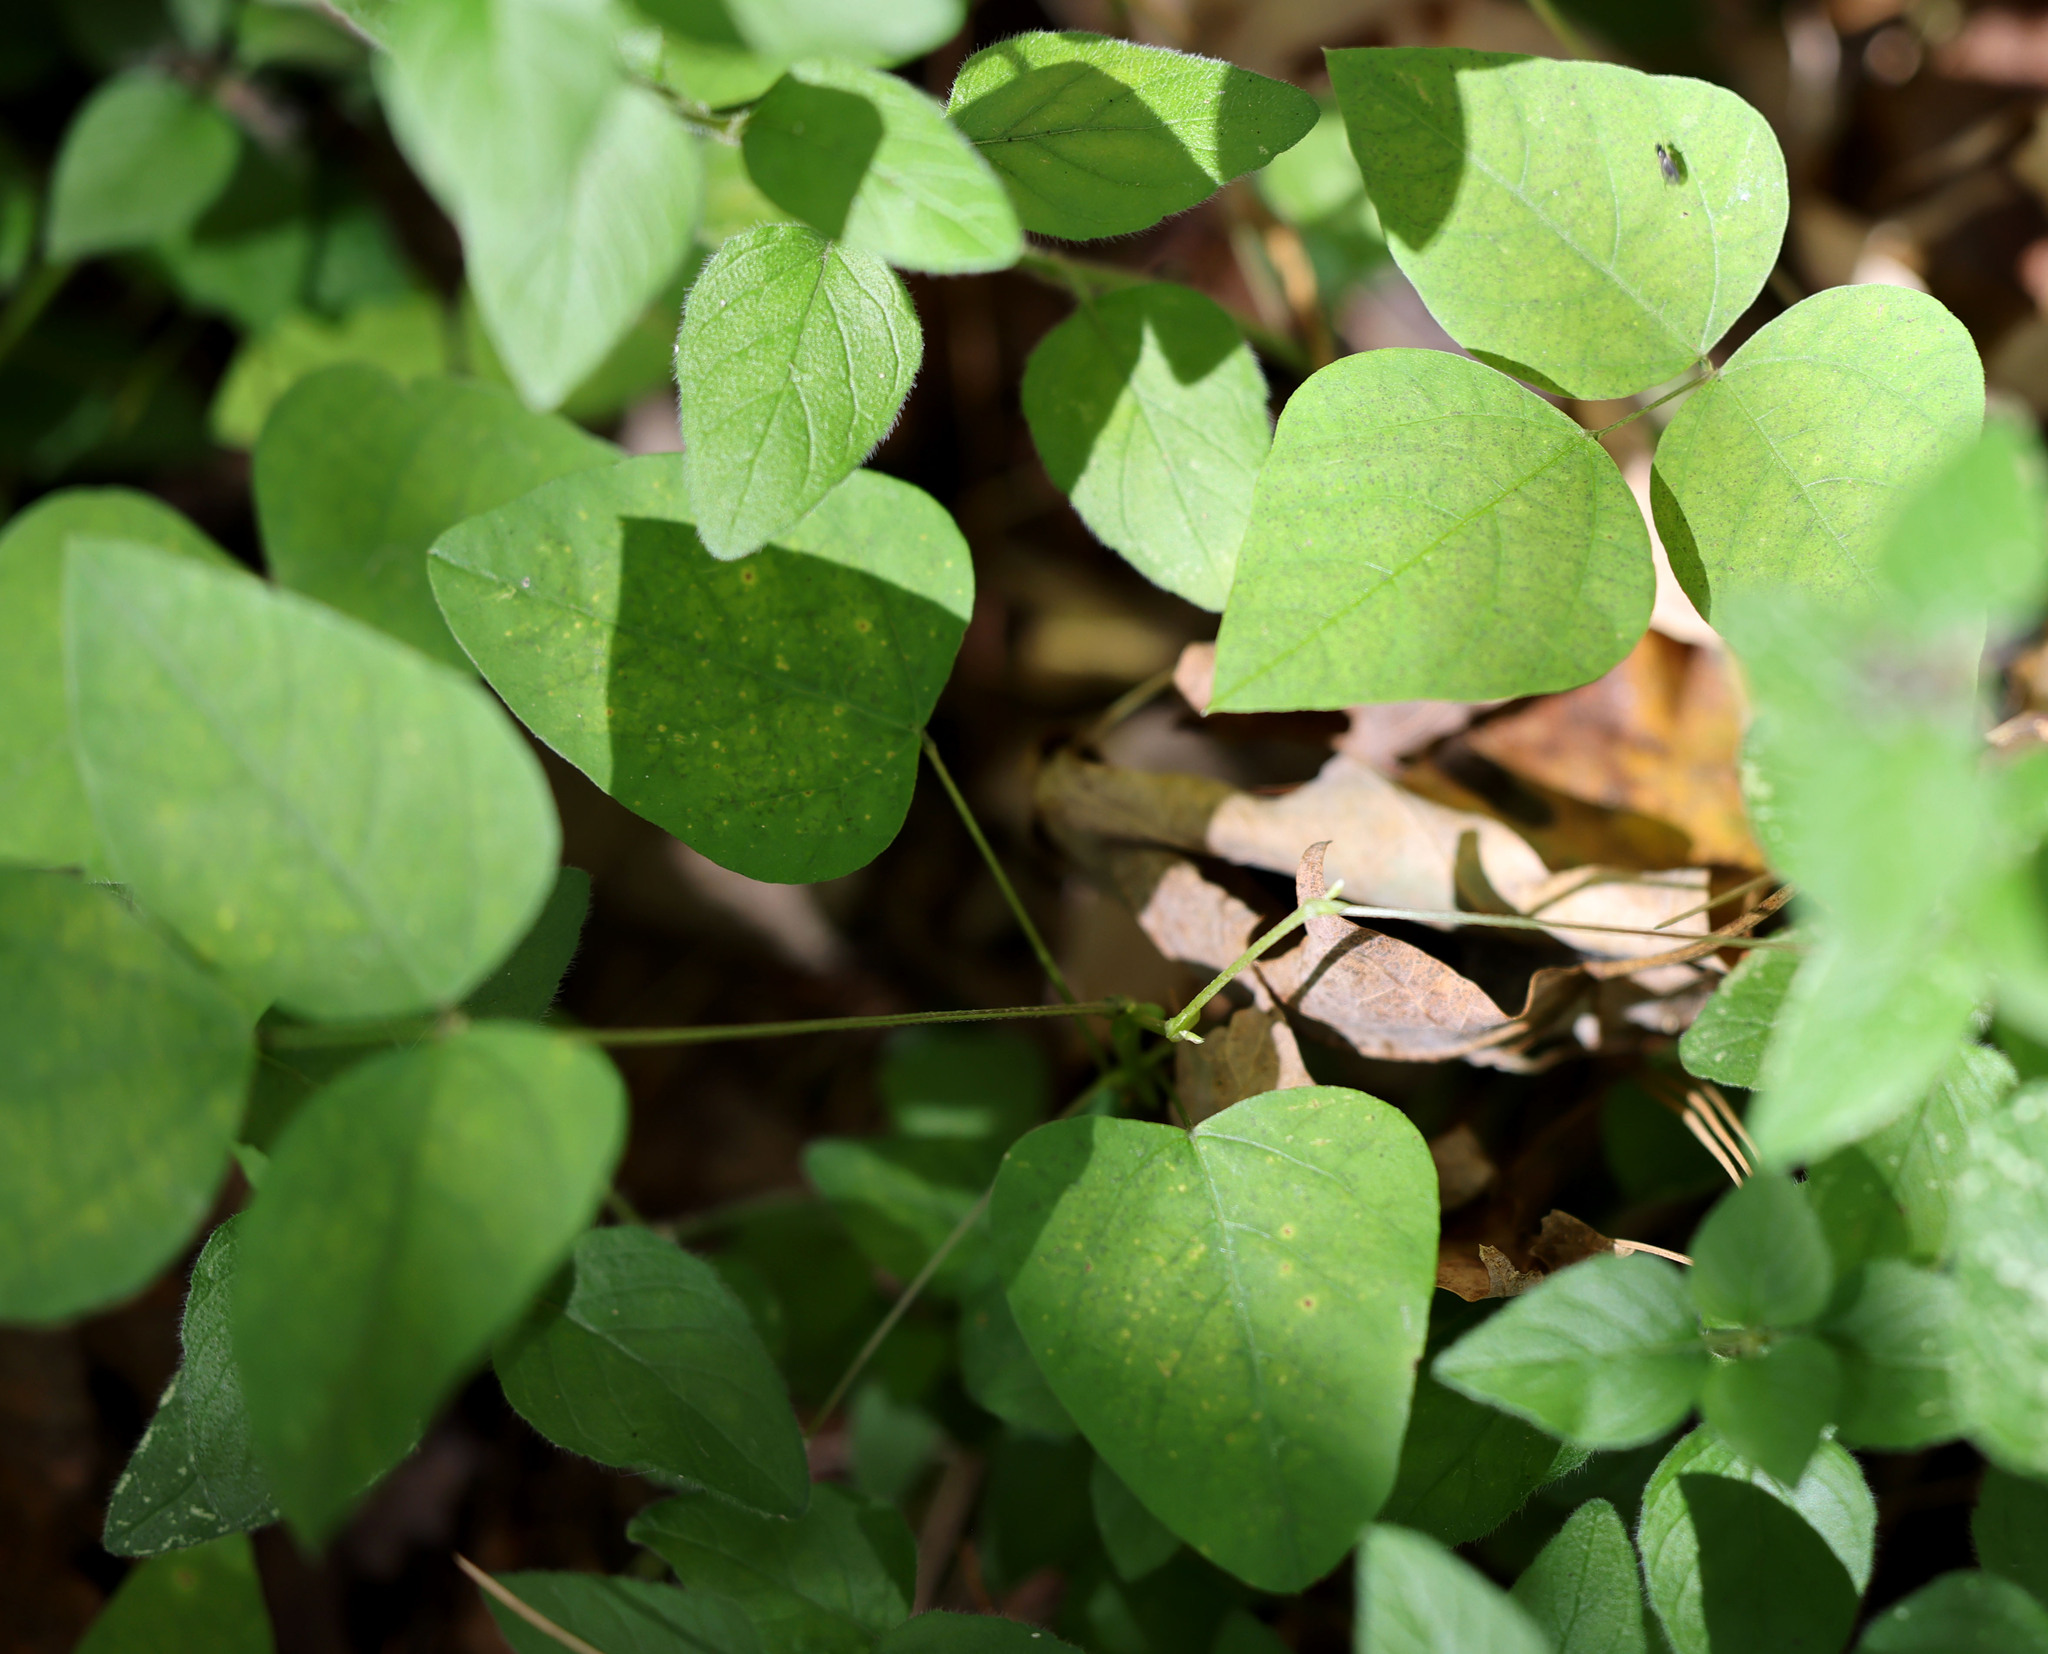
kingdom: Plantae
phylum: Tracheophyta
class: Magnoliopsida
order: Fabales
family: Fabaceae
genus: Amphicarpaea
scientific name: Amphicarpaea bracteata
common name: American hog peanut
